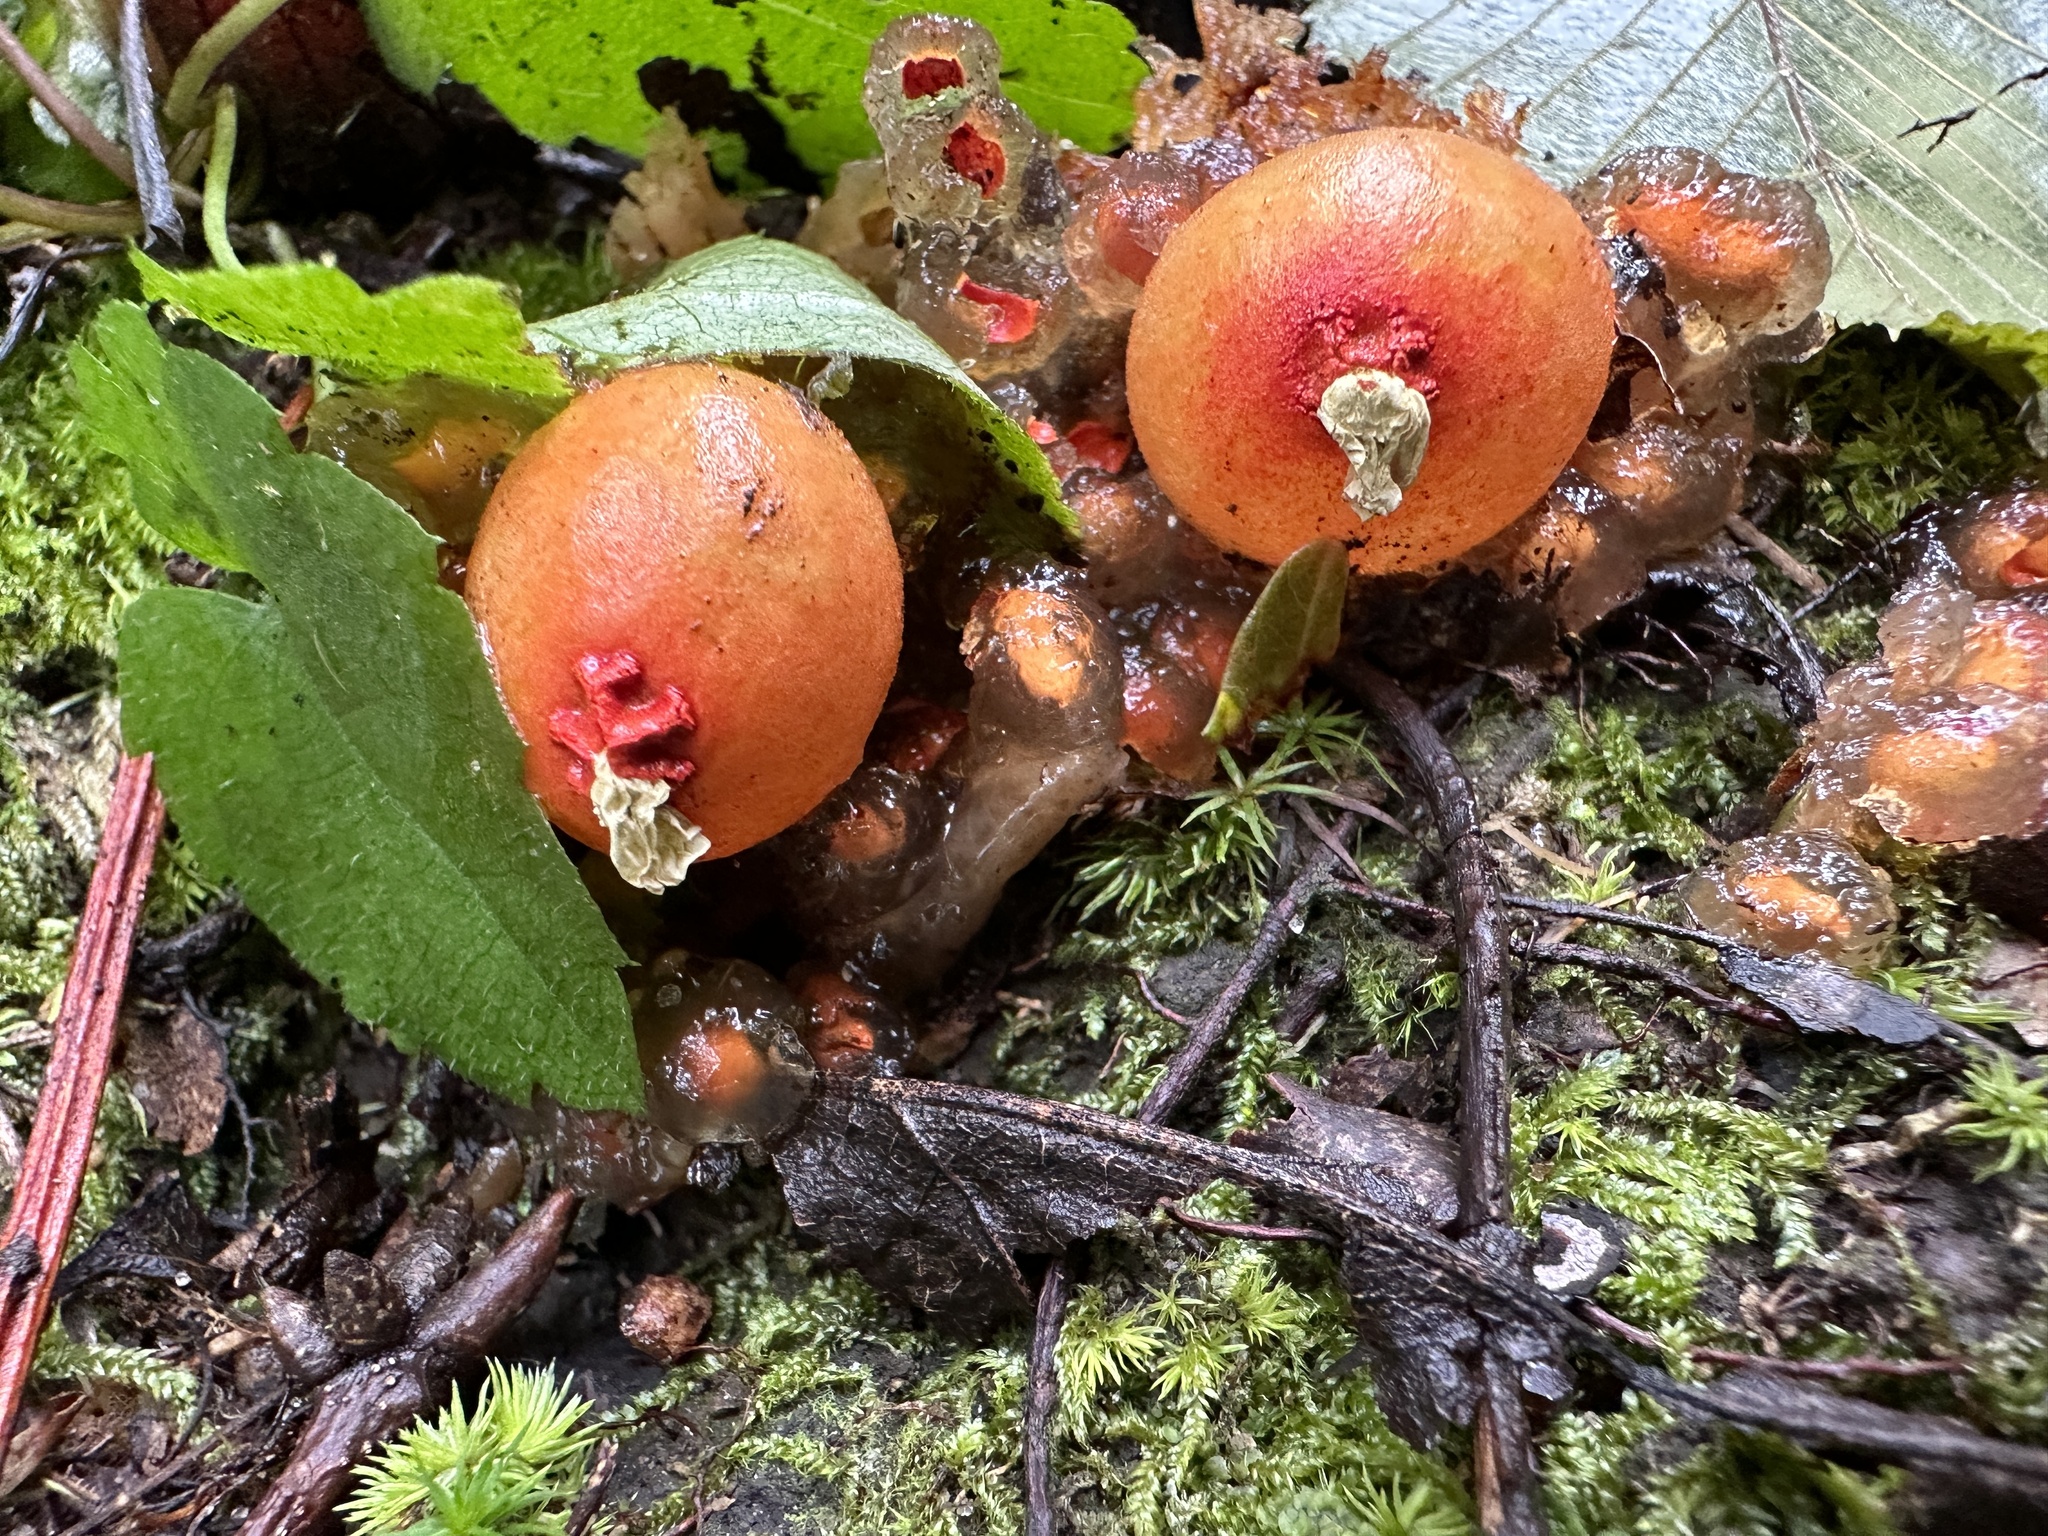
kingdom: Fungi
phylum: Basidiomycota
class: Agaricomycetes
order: Boletales
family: Calostomataceae
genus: Calostoma
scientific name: Calostoma cinnabarinum
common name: Stalked puffball-in-aspic
